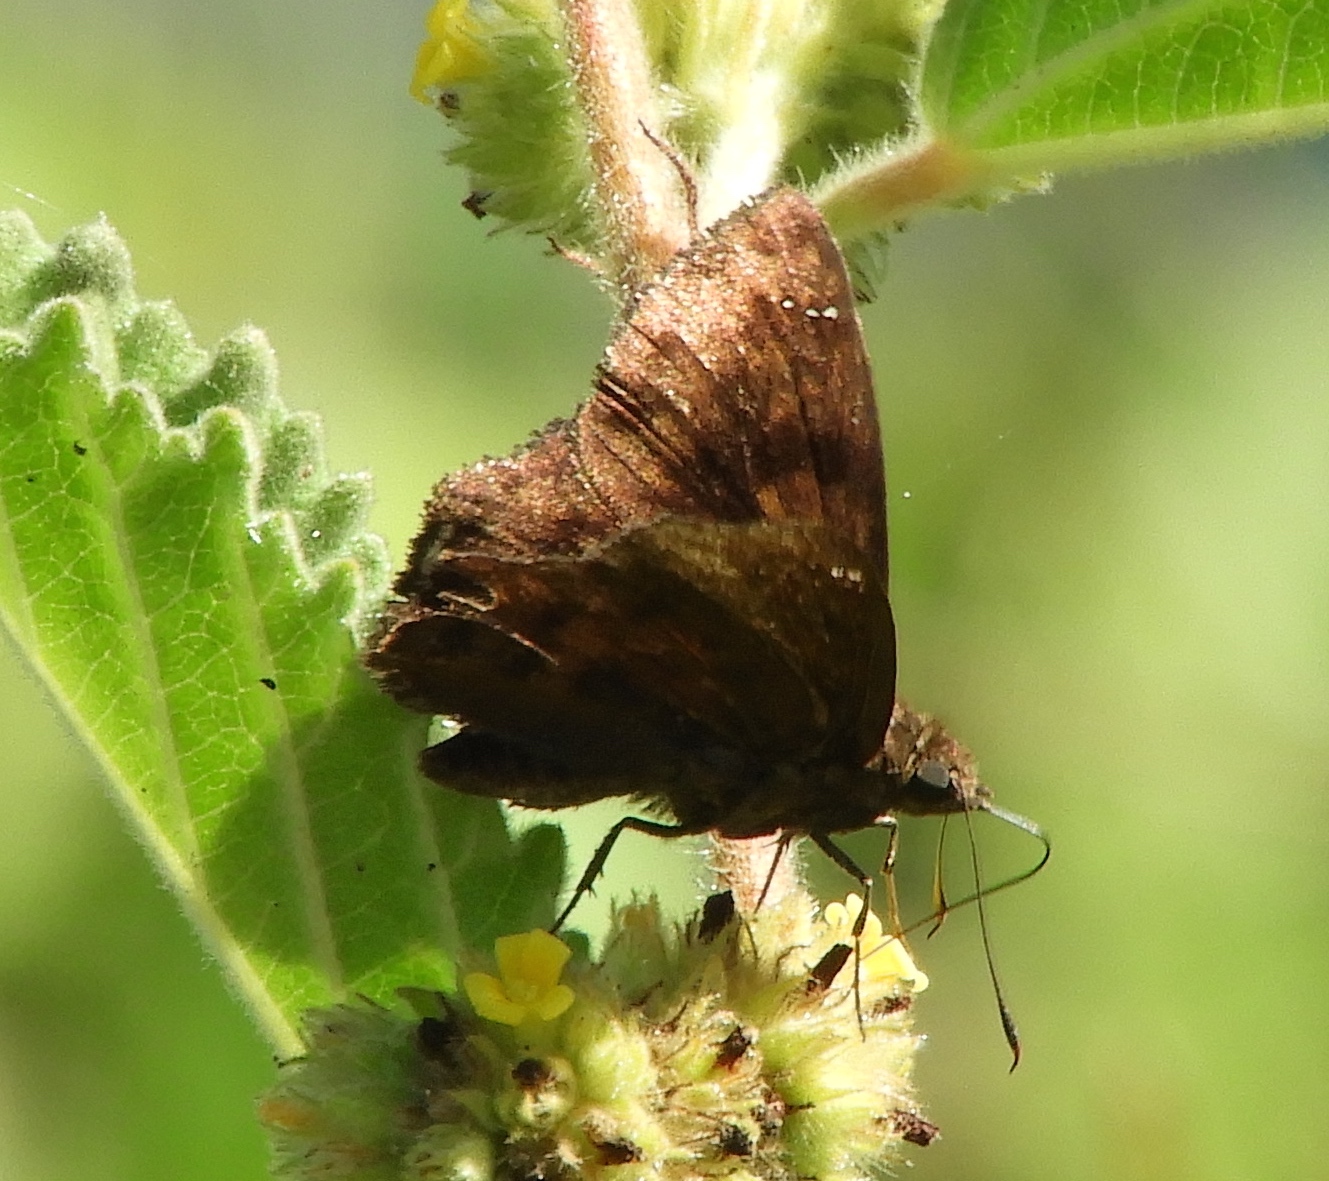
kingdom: Animalia
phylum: Arthropoda
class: Insecta
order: Lepidoptera
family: Hesperiidae
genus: Nisoniades
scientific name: Nisoniades rubescens
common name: Purplish-black skipper
